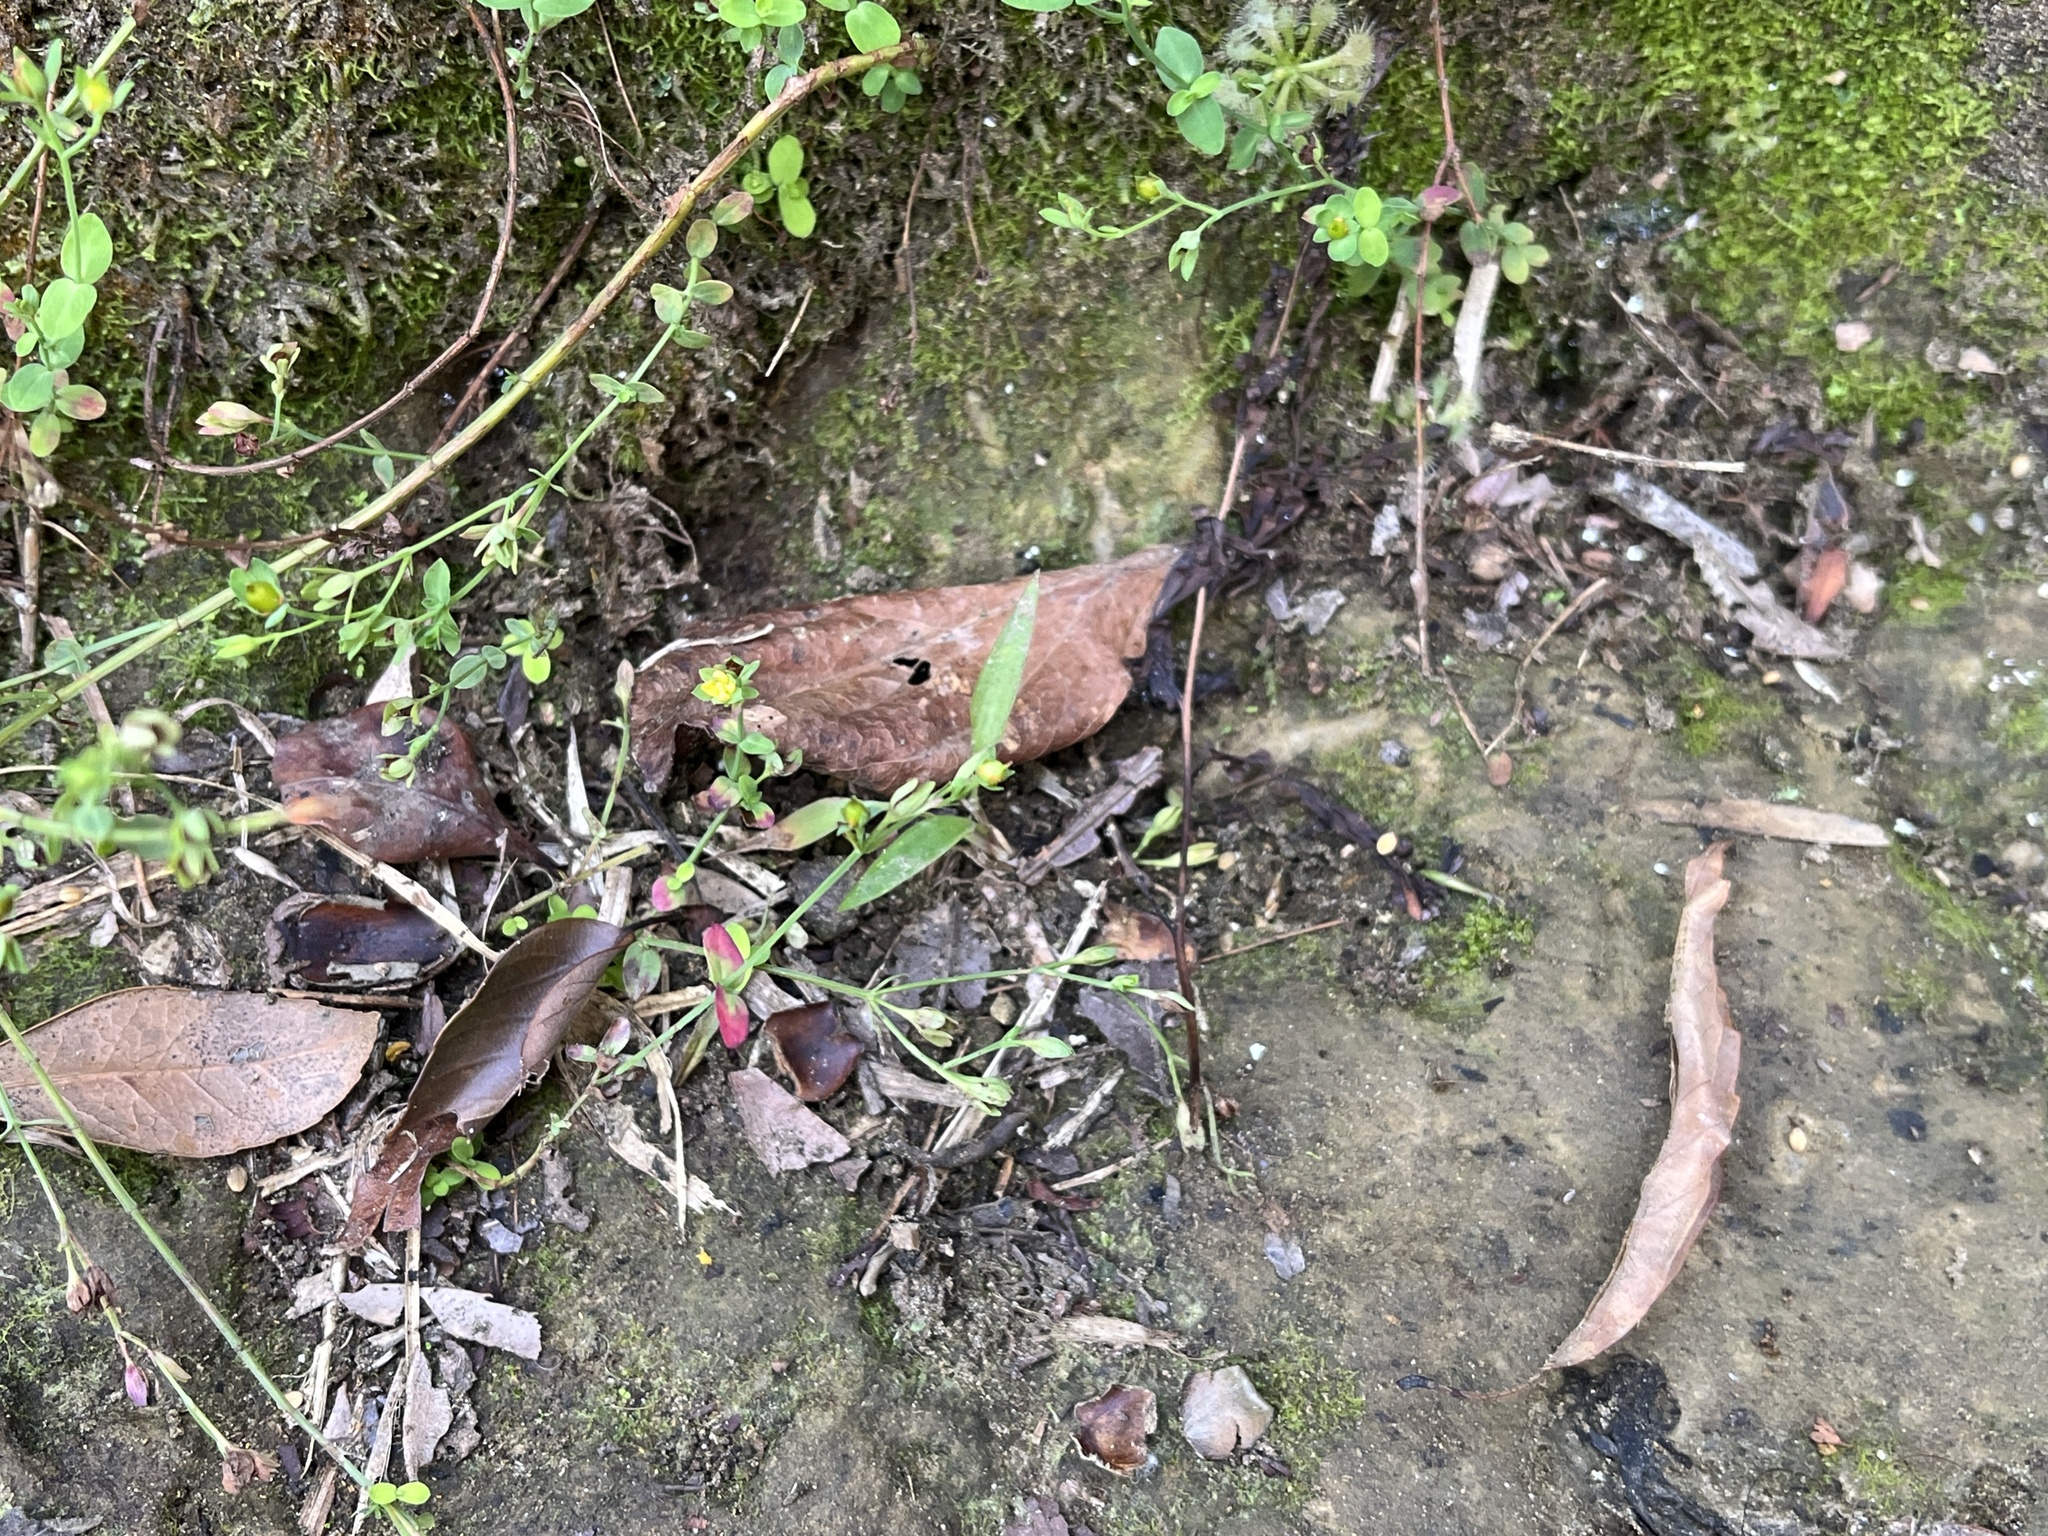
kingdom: Plantae
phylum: Tracheophyta
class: Magnoliopsida
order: Malpighiales
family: Hypericaceae
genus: Hypericum
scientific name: Hypericum japonicum
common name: Matted st. john's-wort
